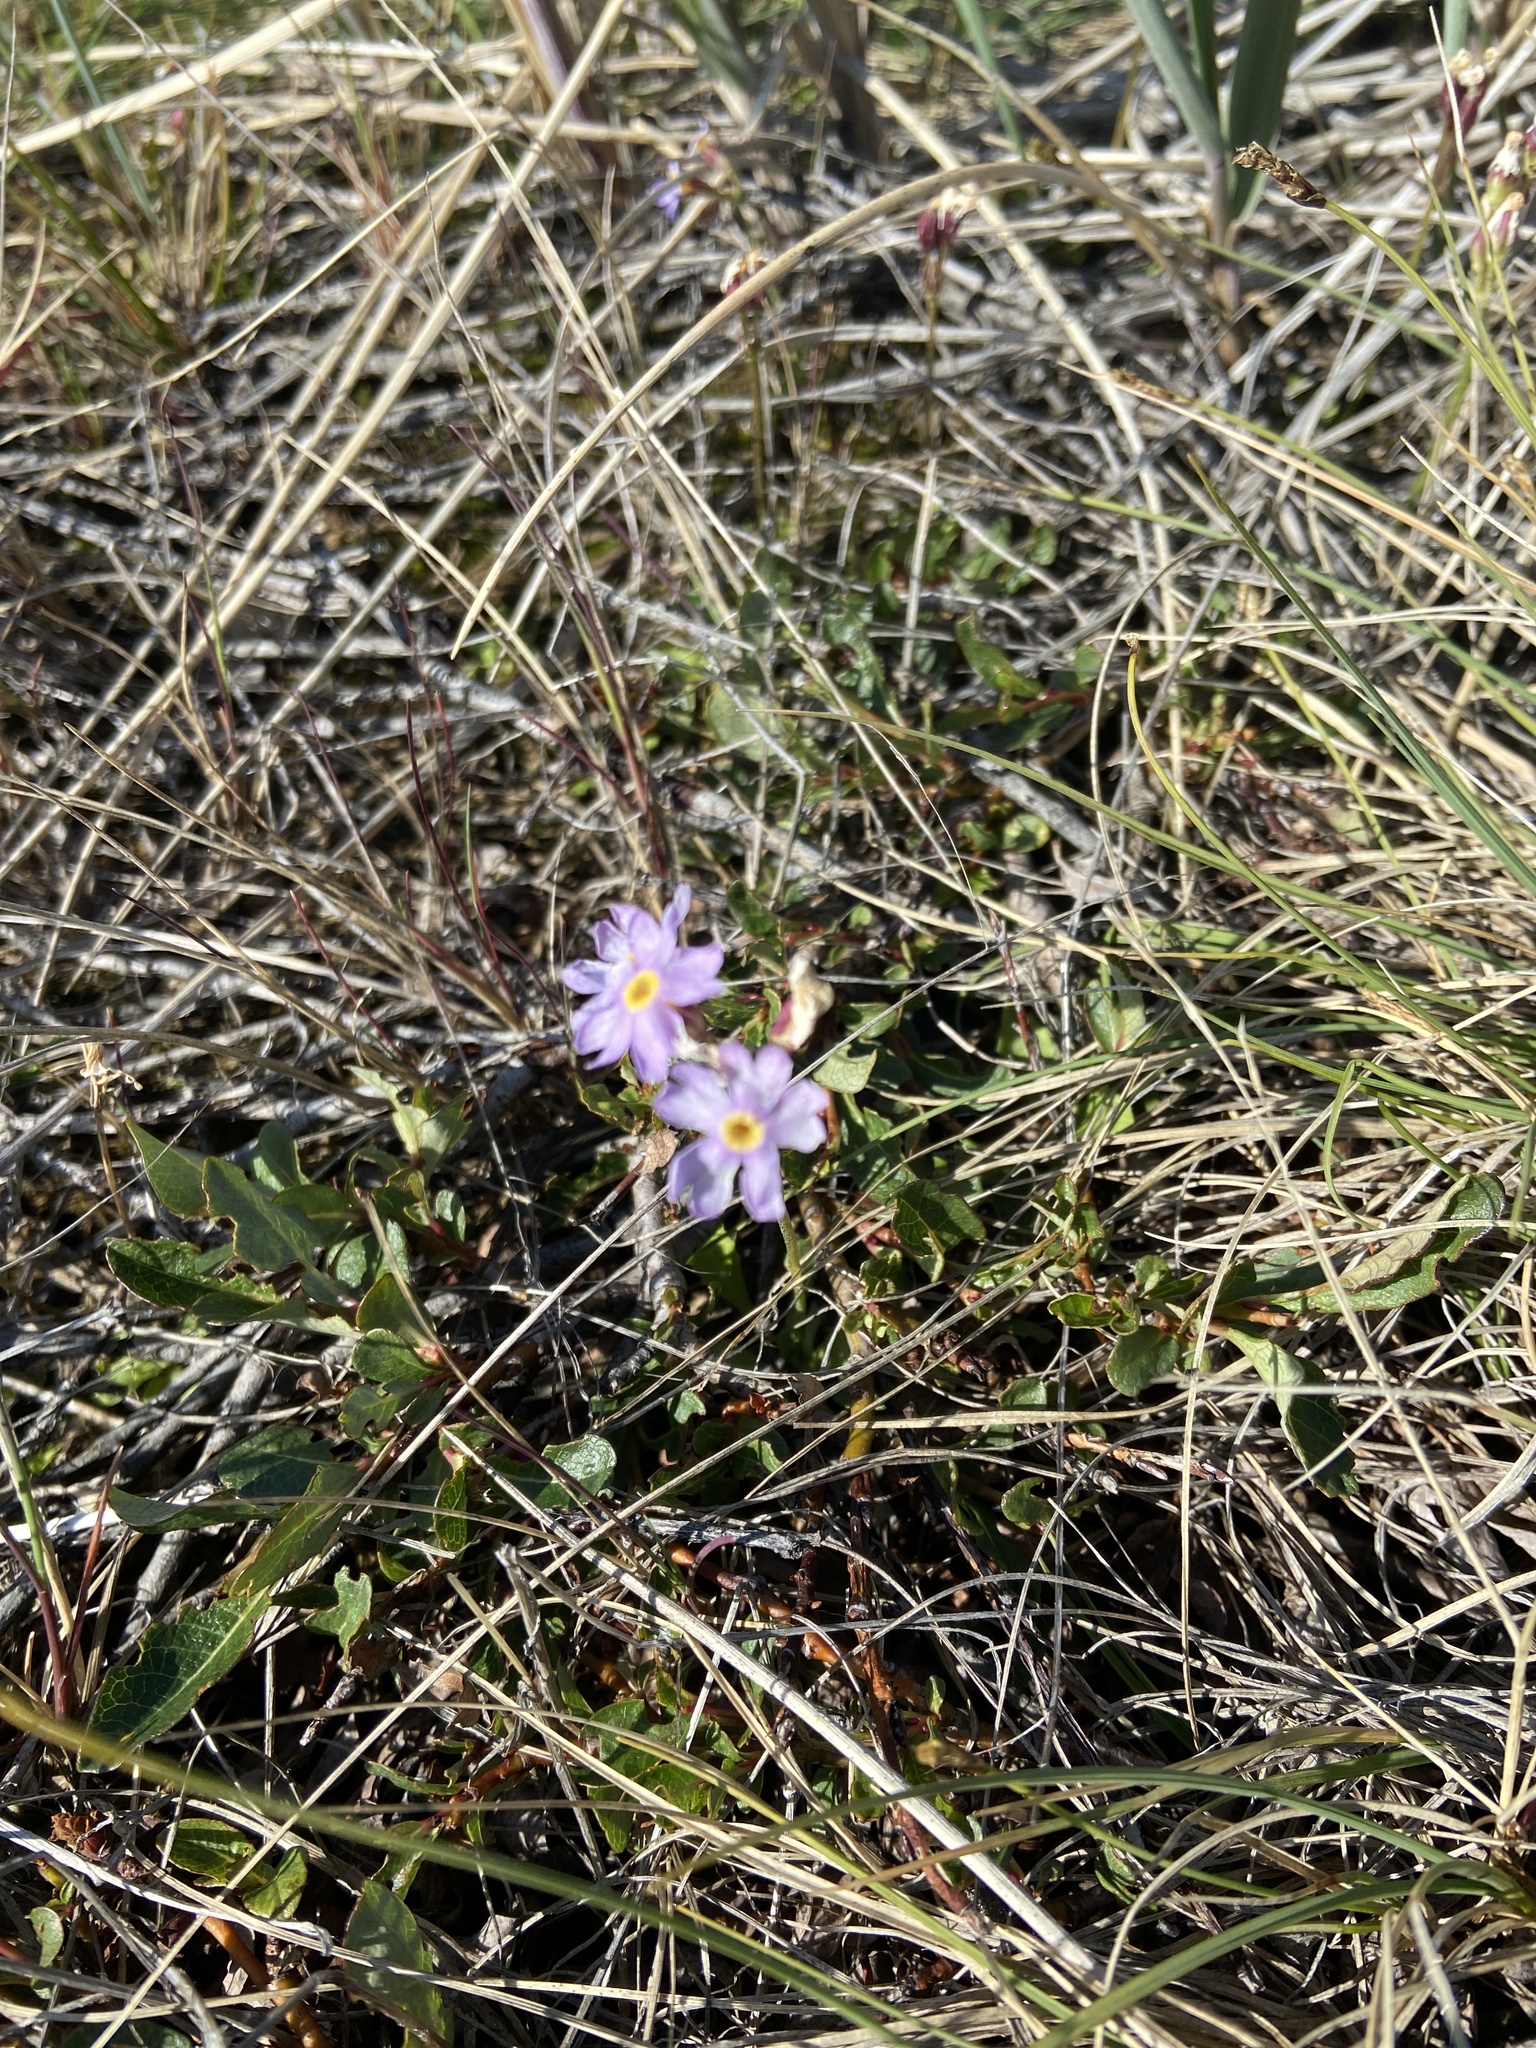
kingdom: Plantae
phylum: Tracheophyta
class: Magnoliopsida
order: Ericales
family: Primulaceae
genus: Primula
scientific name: Primula borealis
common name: Northern primrose
